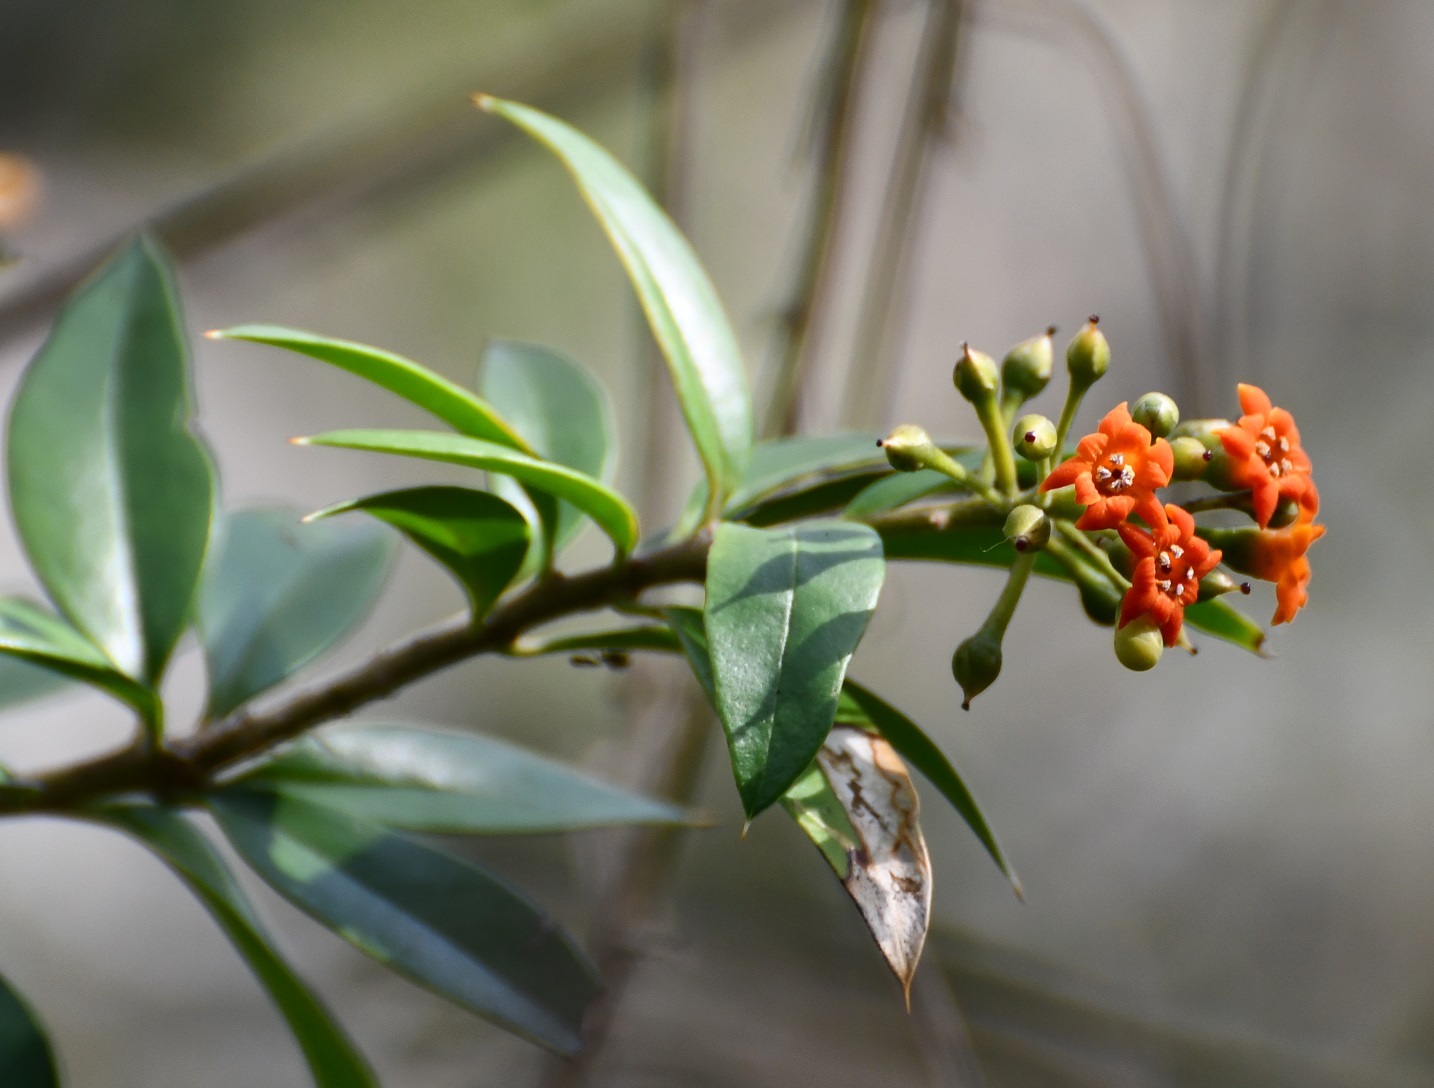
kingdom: Plantae
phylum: Tracheophyta
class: Magnoliopsida
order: Ericales
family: Primulaceae
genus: Bonellia
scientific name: Bonellia macrocarpa
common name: Primrose
